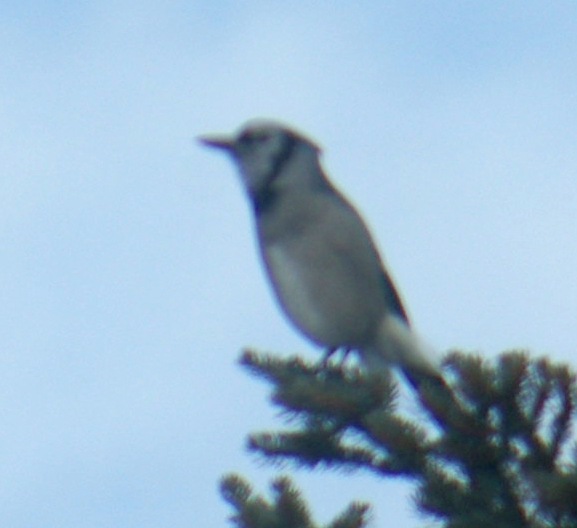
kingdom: Animalia
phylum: Chordata
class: Aves
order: Passeriformes
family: Corvidae
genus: Cyanocitta
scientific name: Cyanocitta cristata
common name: Blue jay
